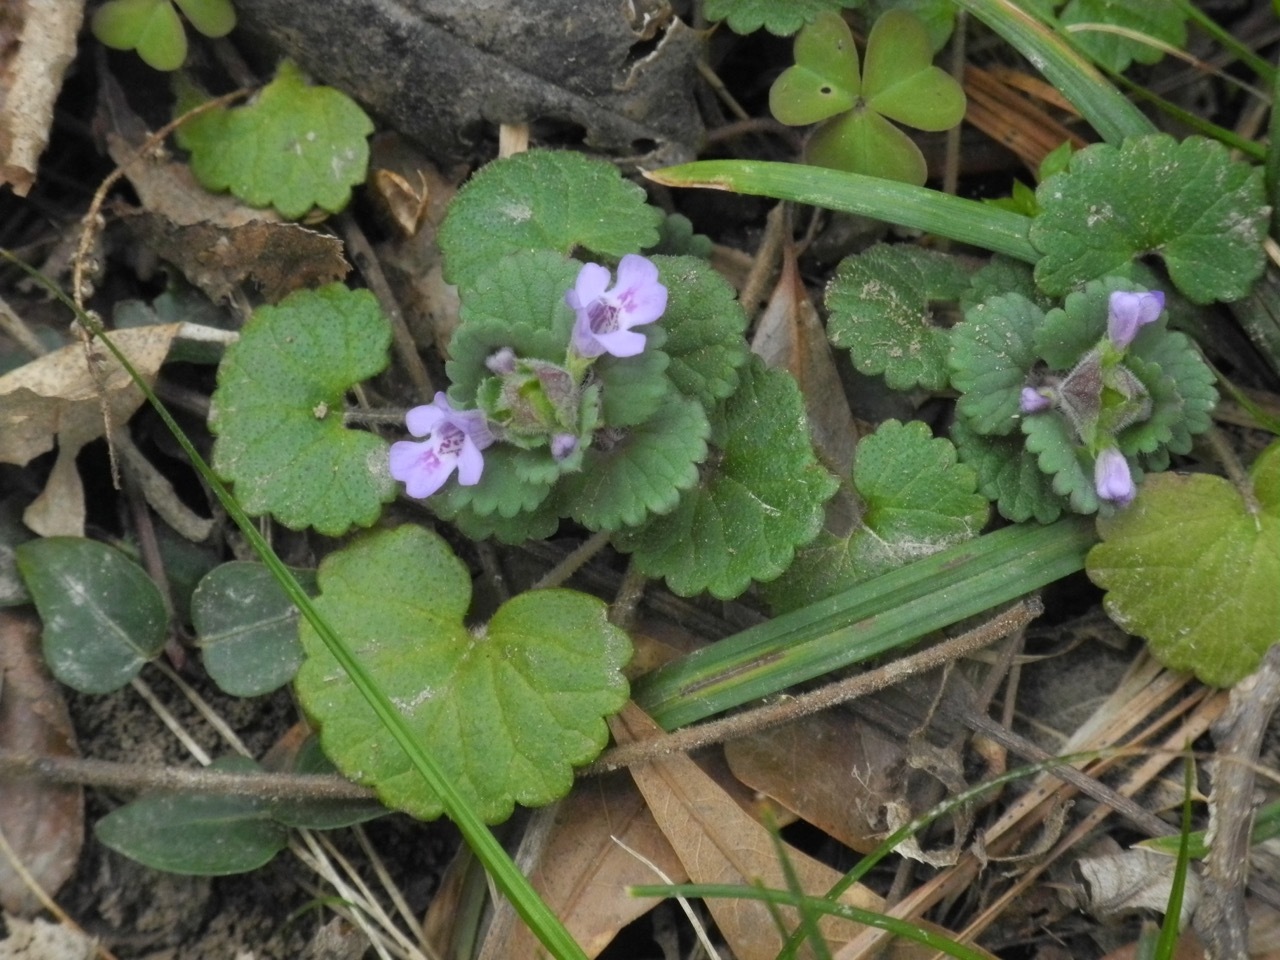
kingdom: Plantae
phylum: Tracheophyta
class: Magnoliopsida
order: Lamiales
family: Lamiaceae
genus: Glechoma
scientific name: Glechoma hederacea
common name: Ground ivy
